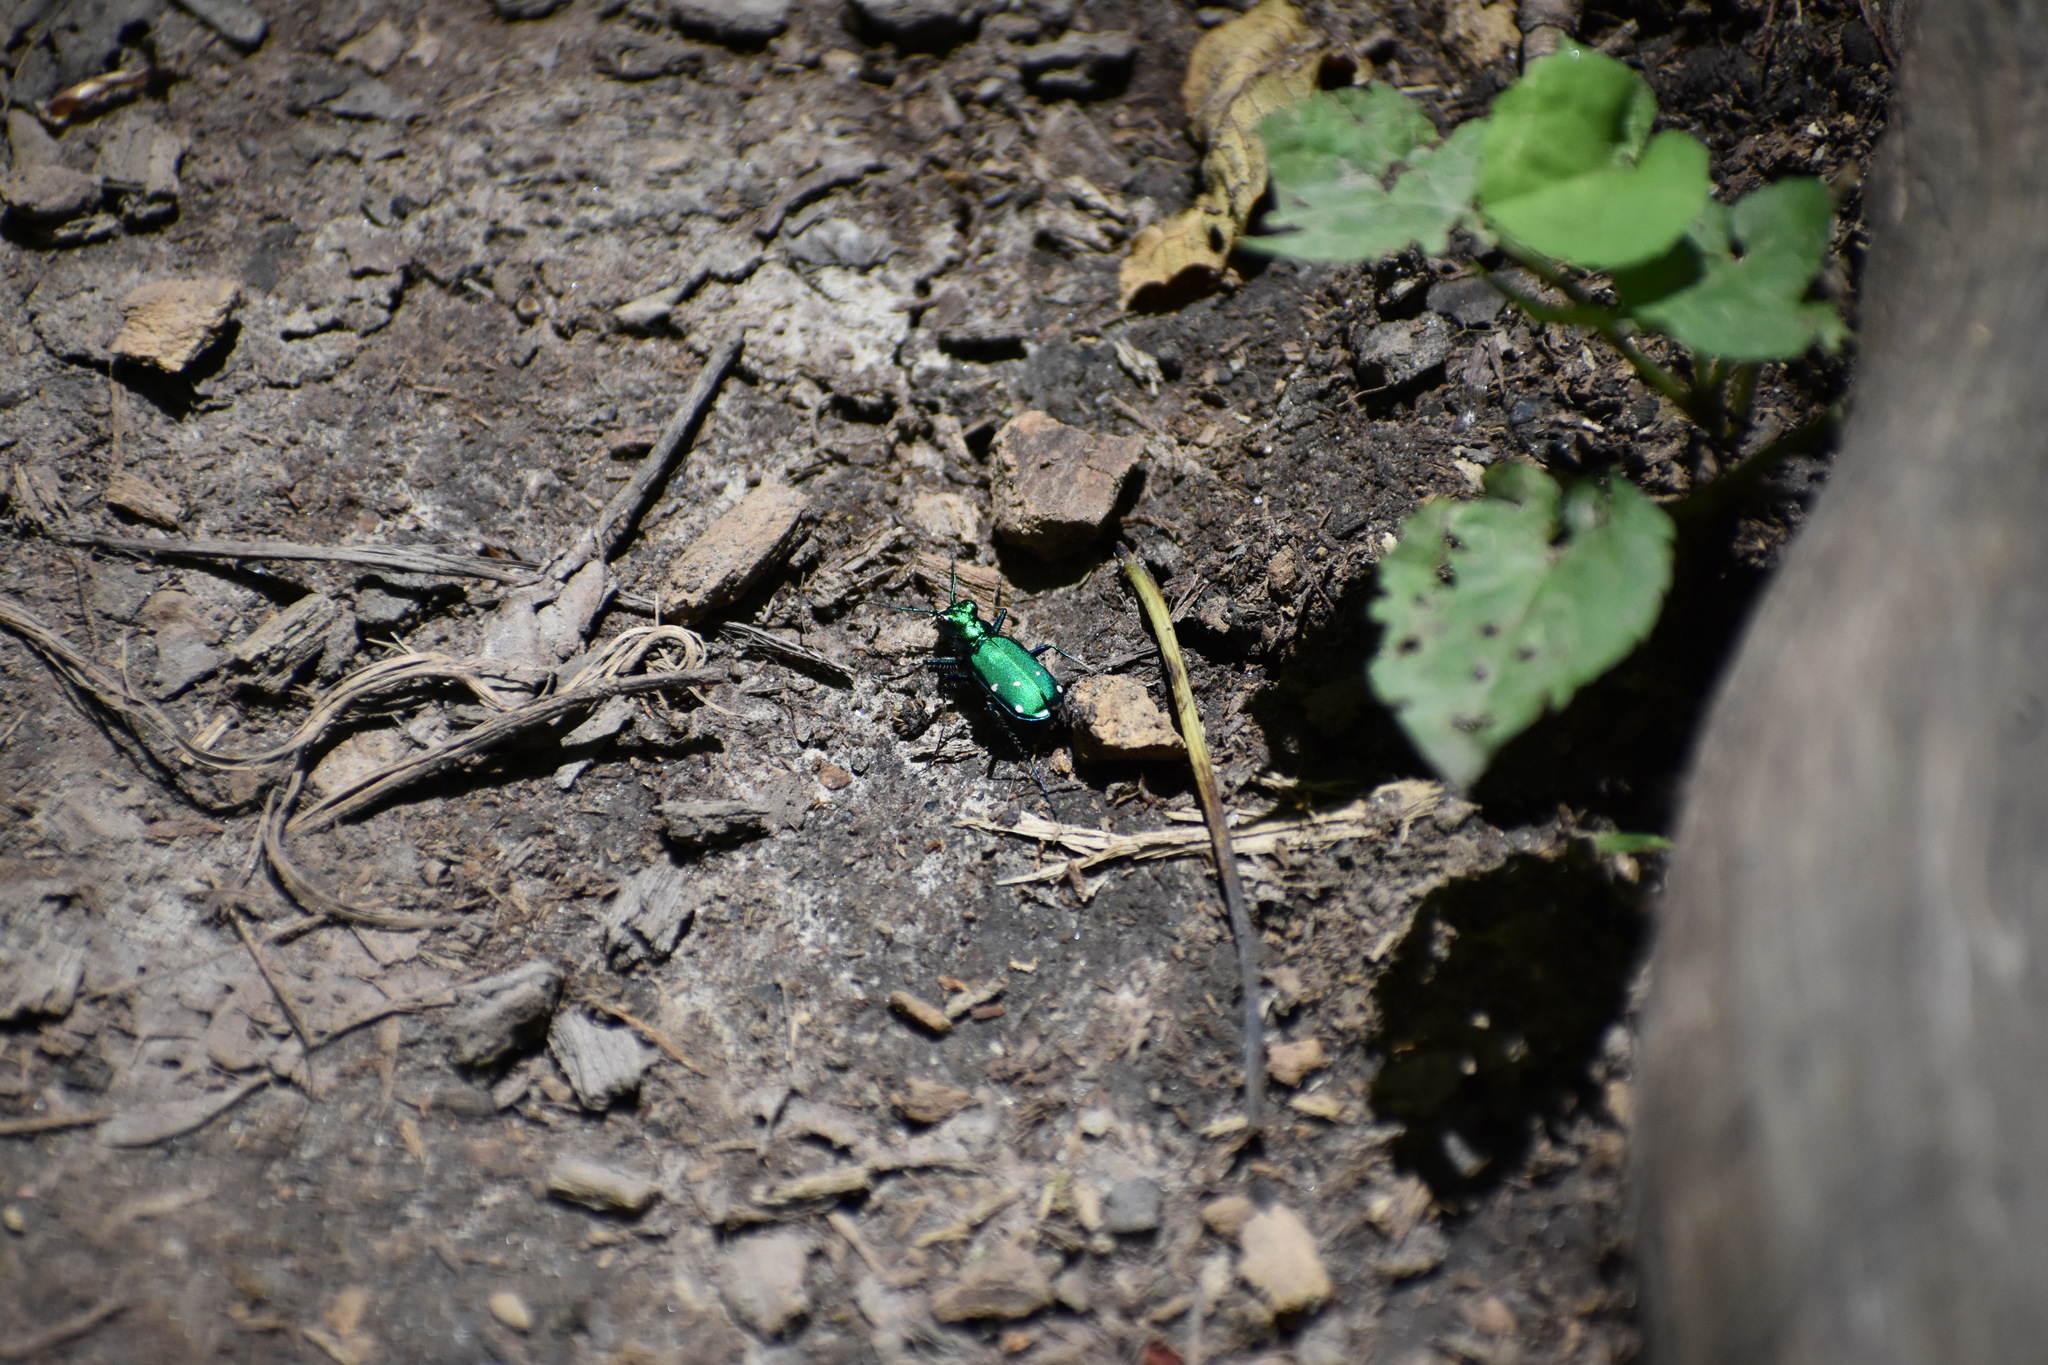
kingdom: Animalia
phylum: Arthropoda
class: Insecta
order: Coleoptera
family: Carabidae
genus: Cicindela
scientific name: Cicindela sexguttata
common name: Six-spotted tiger beetle
